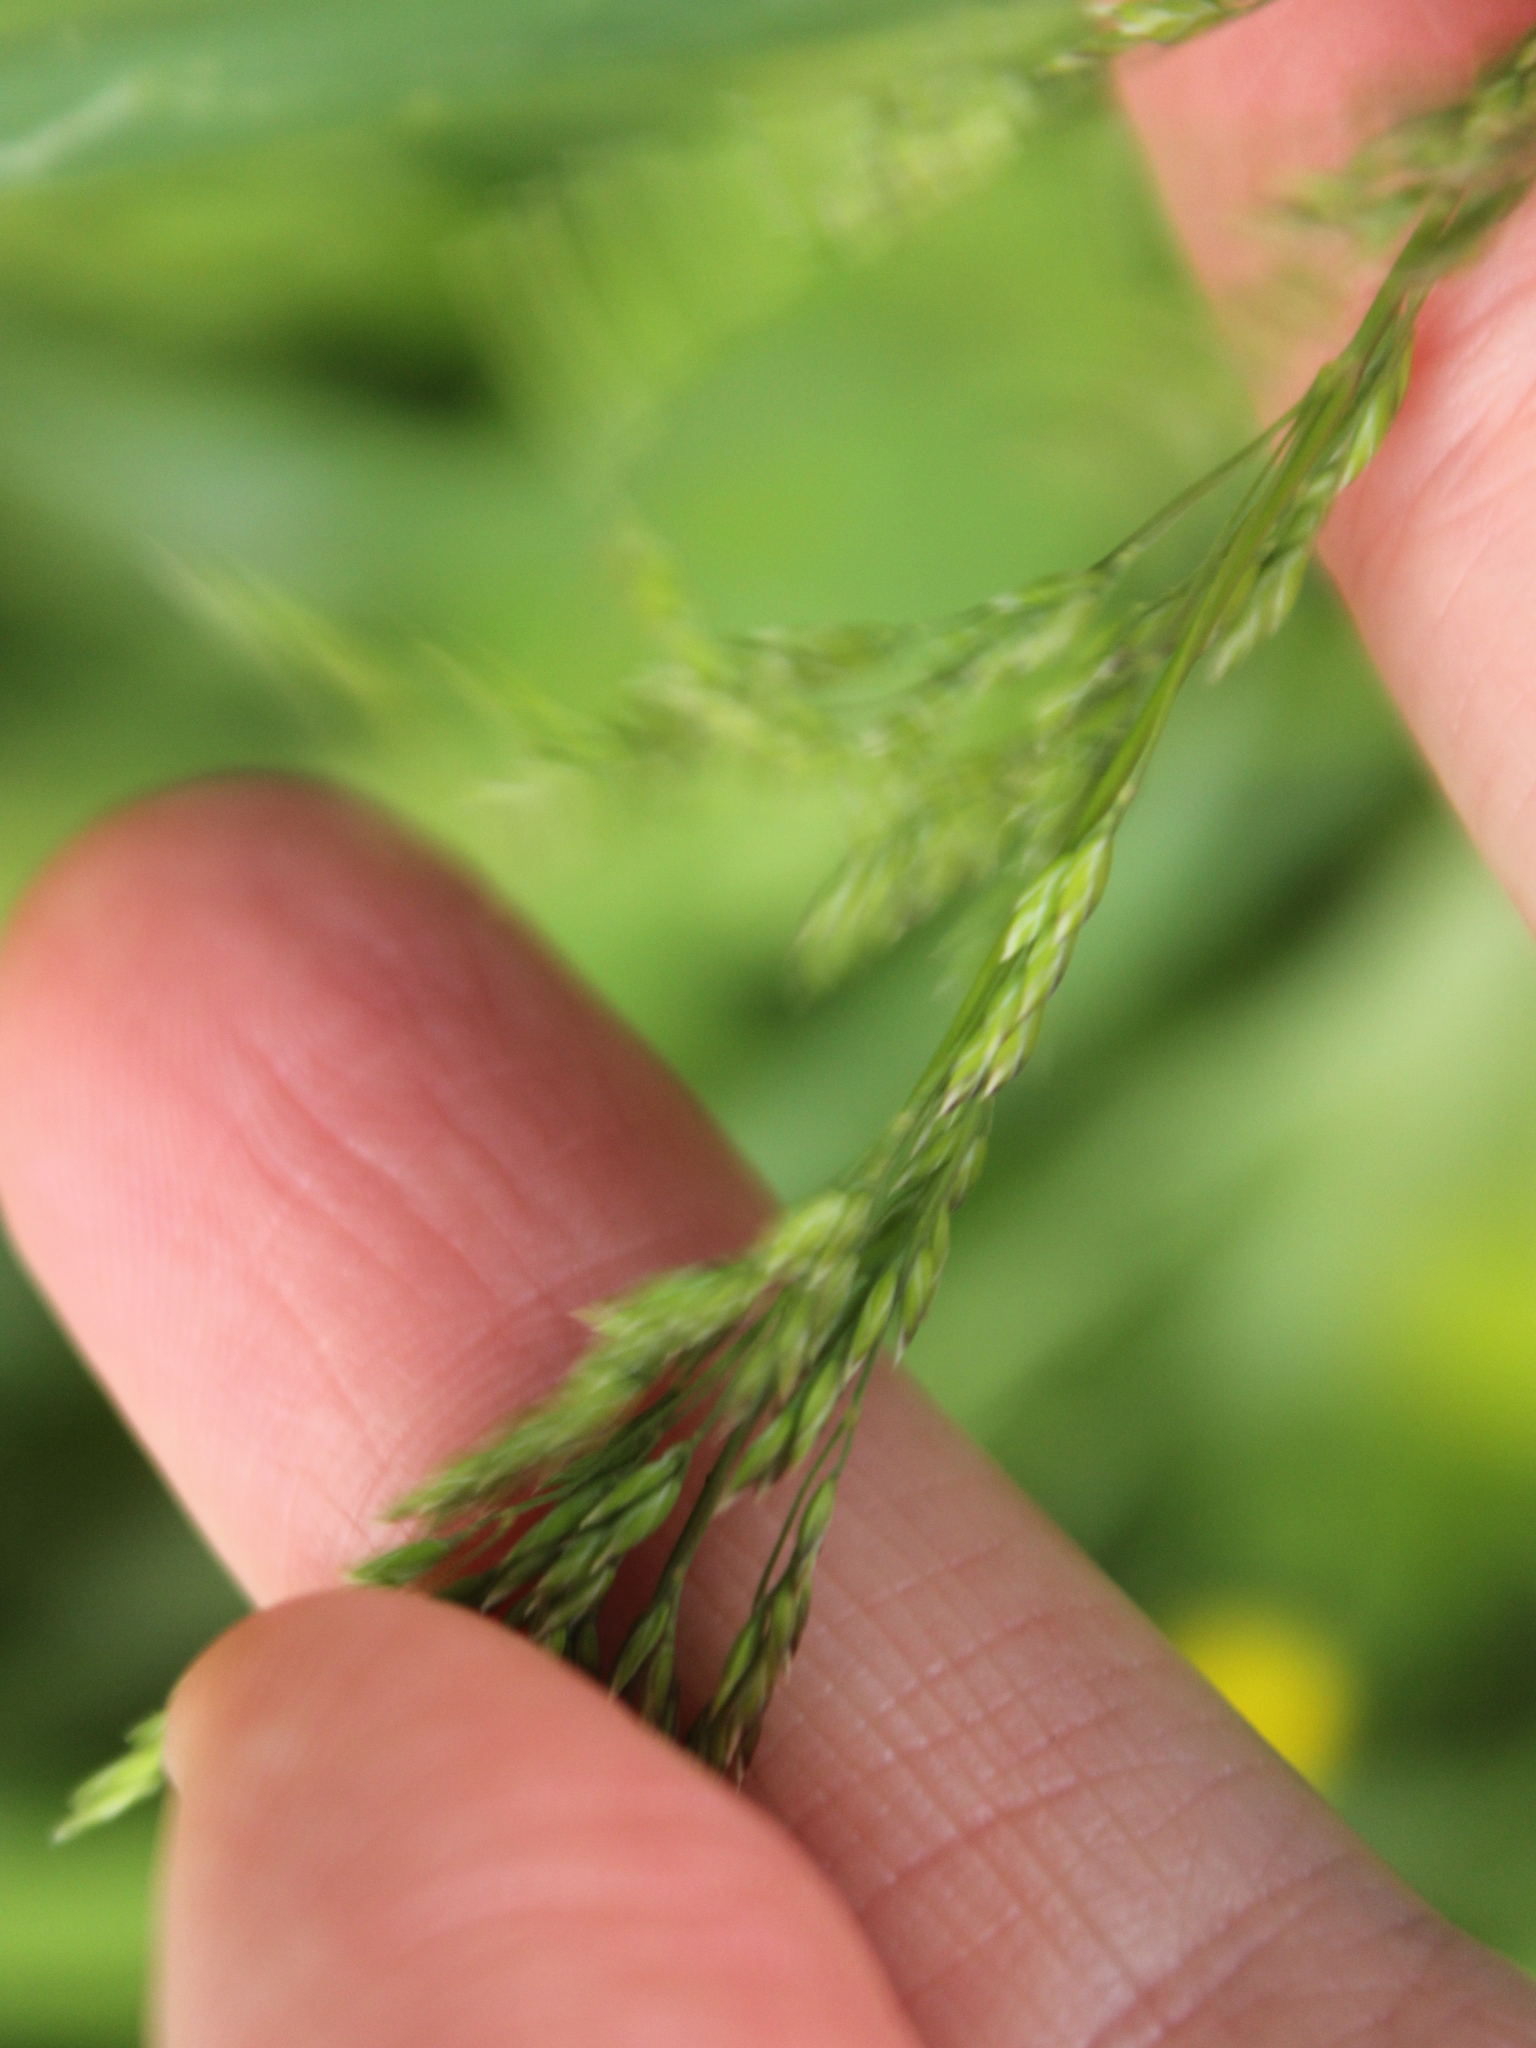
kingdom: Plantae
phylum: Tracheophyta
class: Liliopsida
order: Poales
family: Poaceae
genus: Poa
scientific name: Poa trivialis
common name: Rough bluegrass
